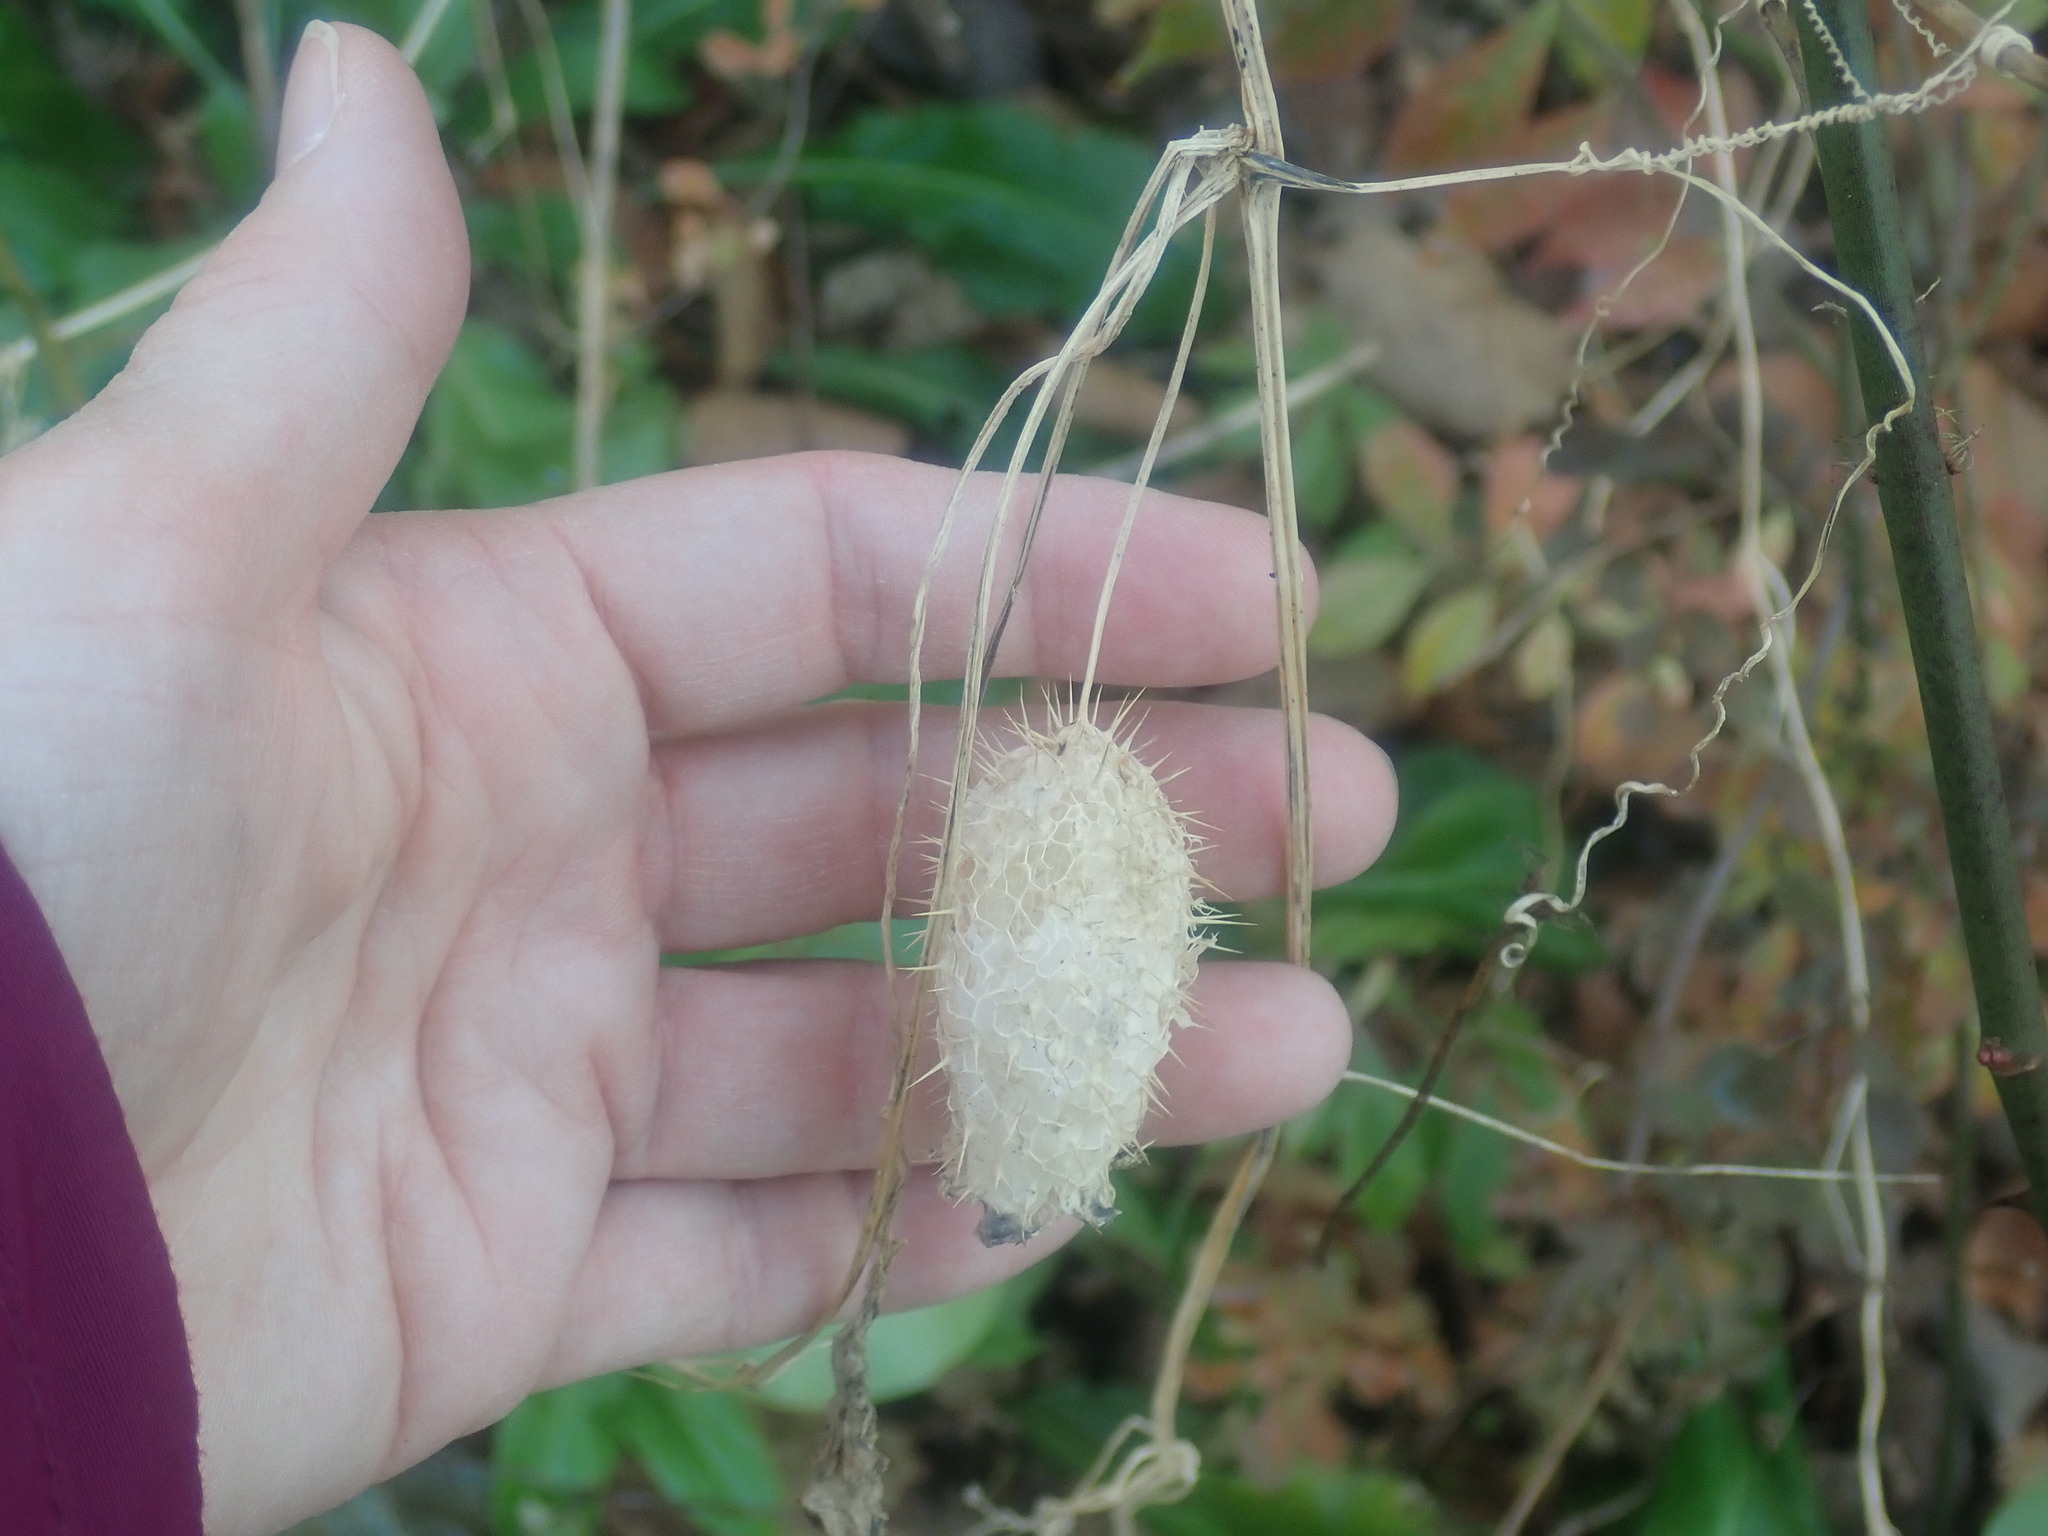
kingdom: Plantae
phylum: Tracheophyta
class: Magnoliopsida
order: Cucurbitales
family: Cucurbitaceae
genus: Echinocystis
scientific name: Echinocystis lobata
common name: Wild cucumber
